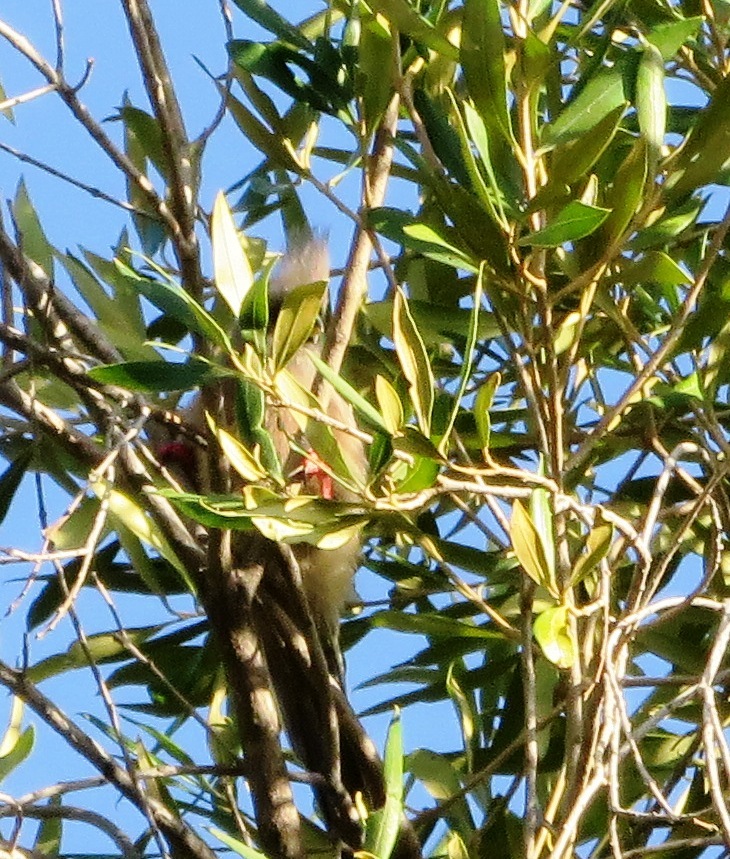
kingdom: Animalia
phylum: Chordata
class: Aves
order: Coliiformes
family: Coliidae
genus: Colius
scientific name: Colius colius
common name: White-backed mousebird
